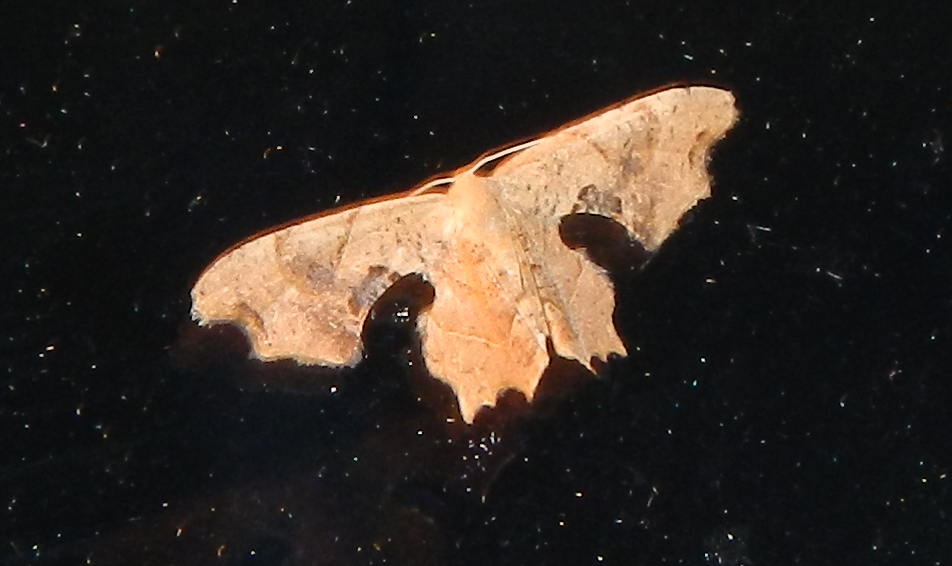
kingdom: Animalia
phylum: Arthropoda
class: Insecta
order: Lepidoptera
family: Uraniidae
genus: Epiplema
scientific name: Epiplema Calledapteryx dryopterata
